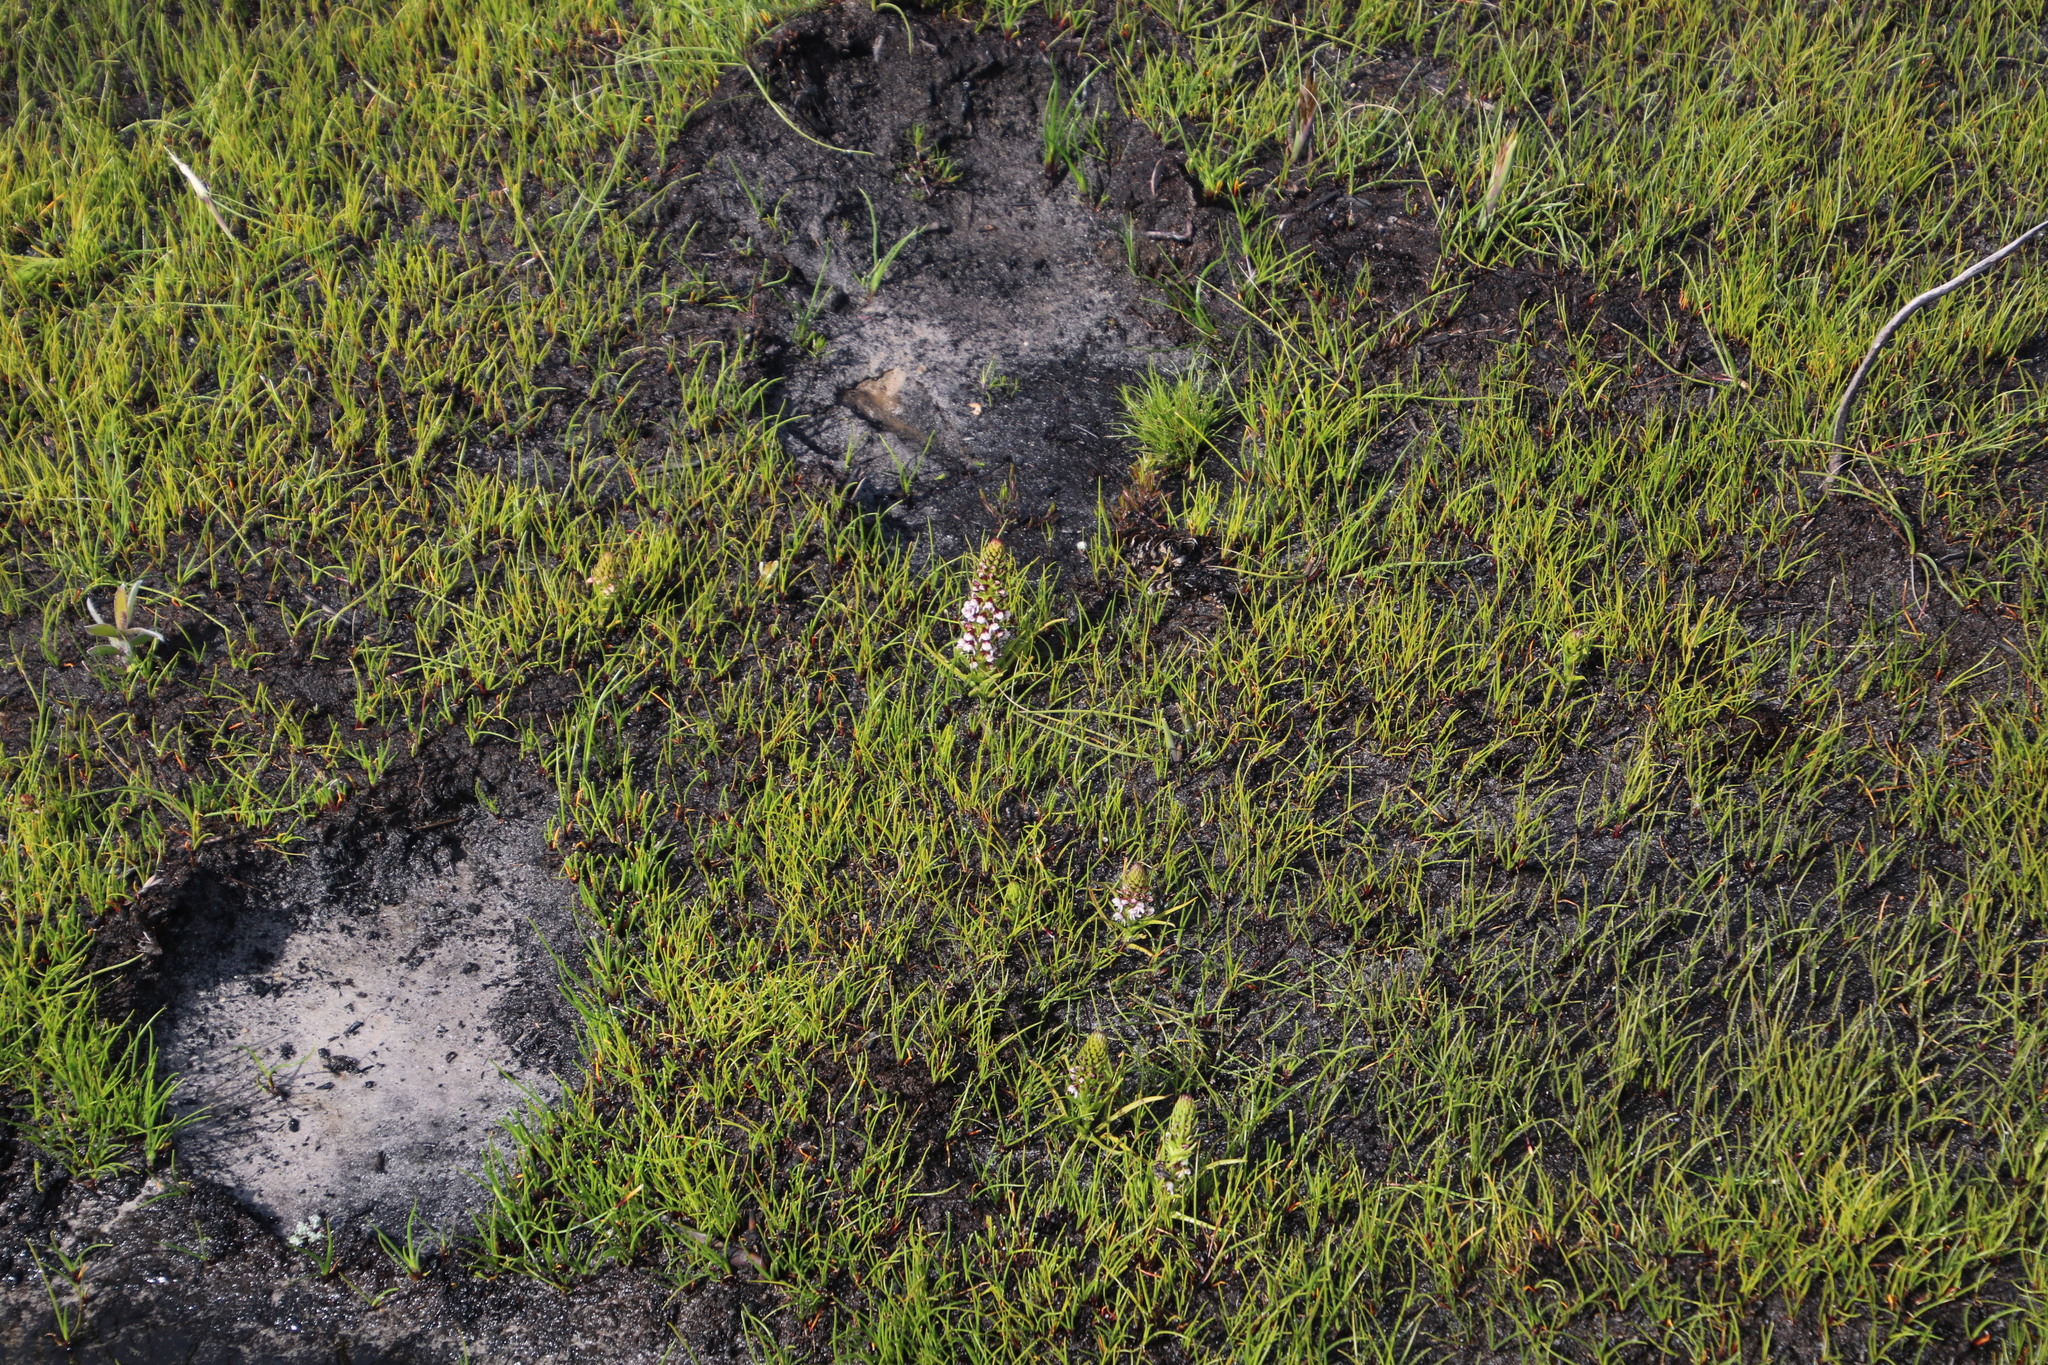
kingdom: Plantae
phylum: Tracheophyta
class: Liliopsida
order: Asparagales
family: Orchidaceae
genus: Disa
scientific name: Disa obtusa
